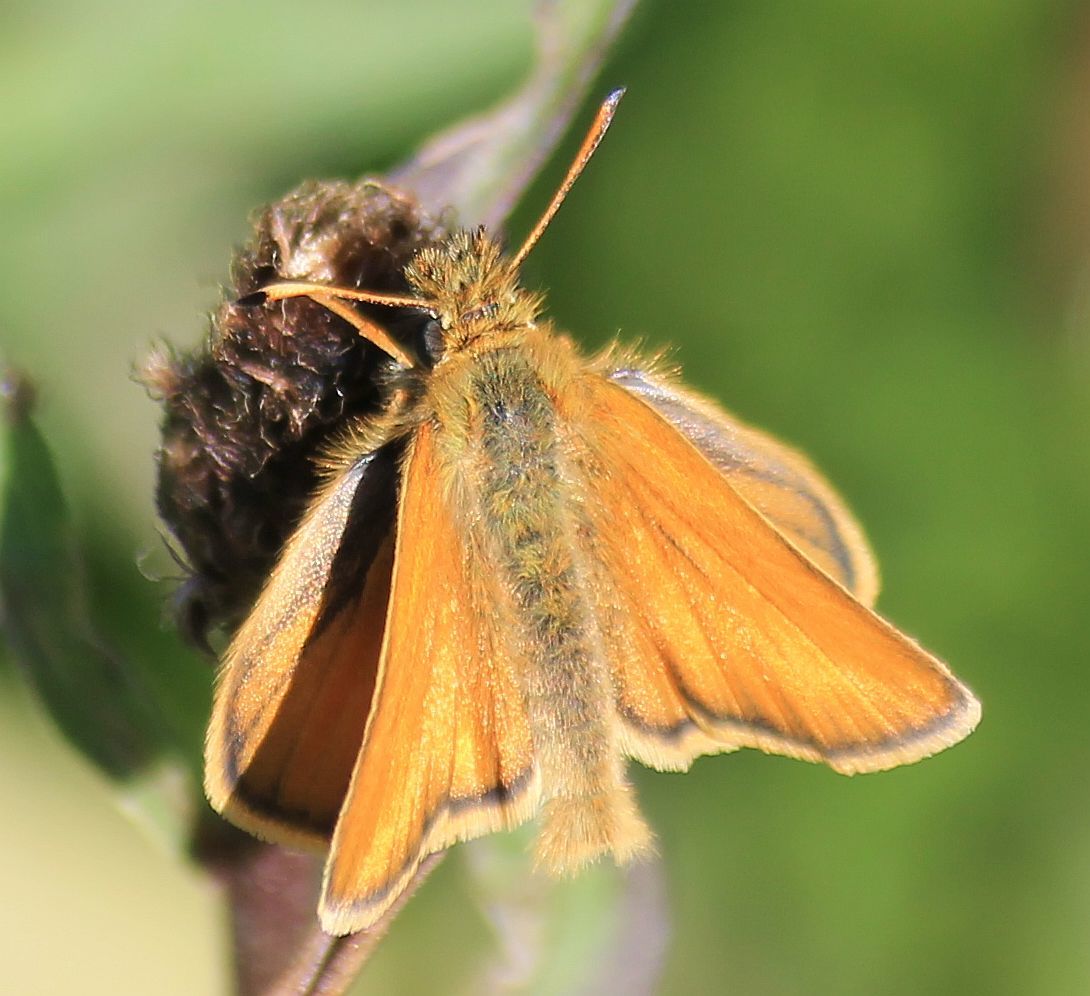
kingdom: Animalia
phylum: Arthropoda
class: Insecta
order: Lepidoptera
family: Hesperiidae
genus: Thymelicus
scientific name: Thymelicus lineola
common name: Essex skipper
